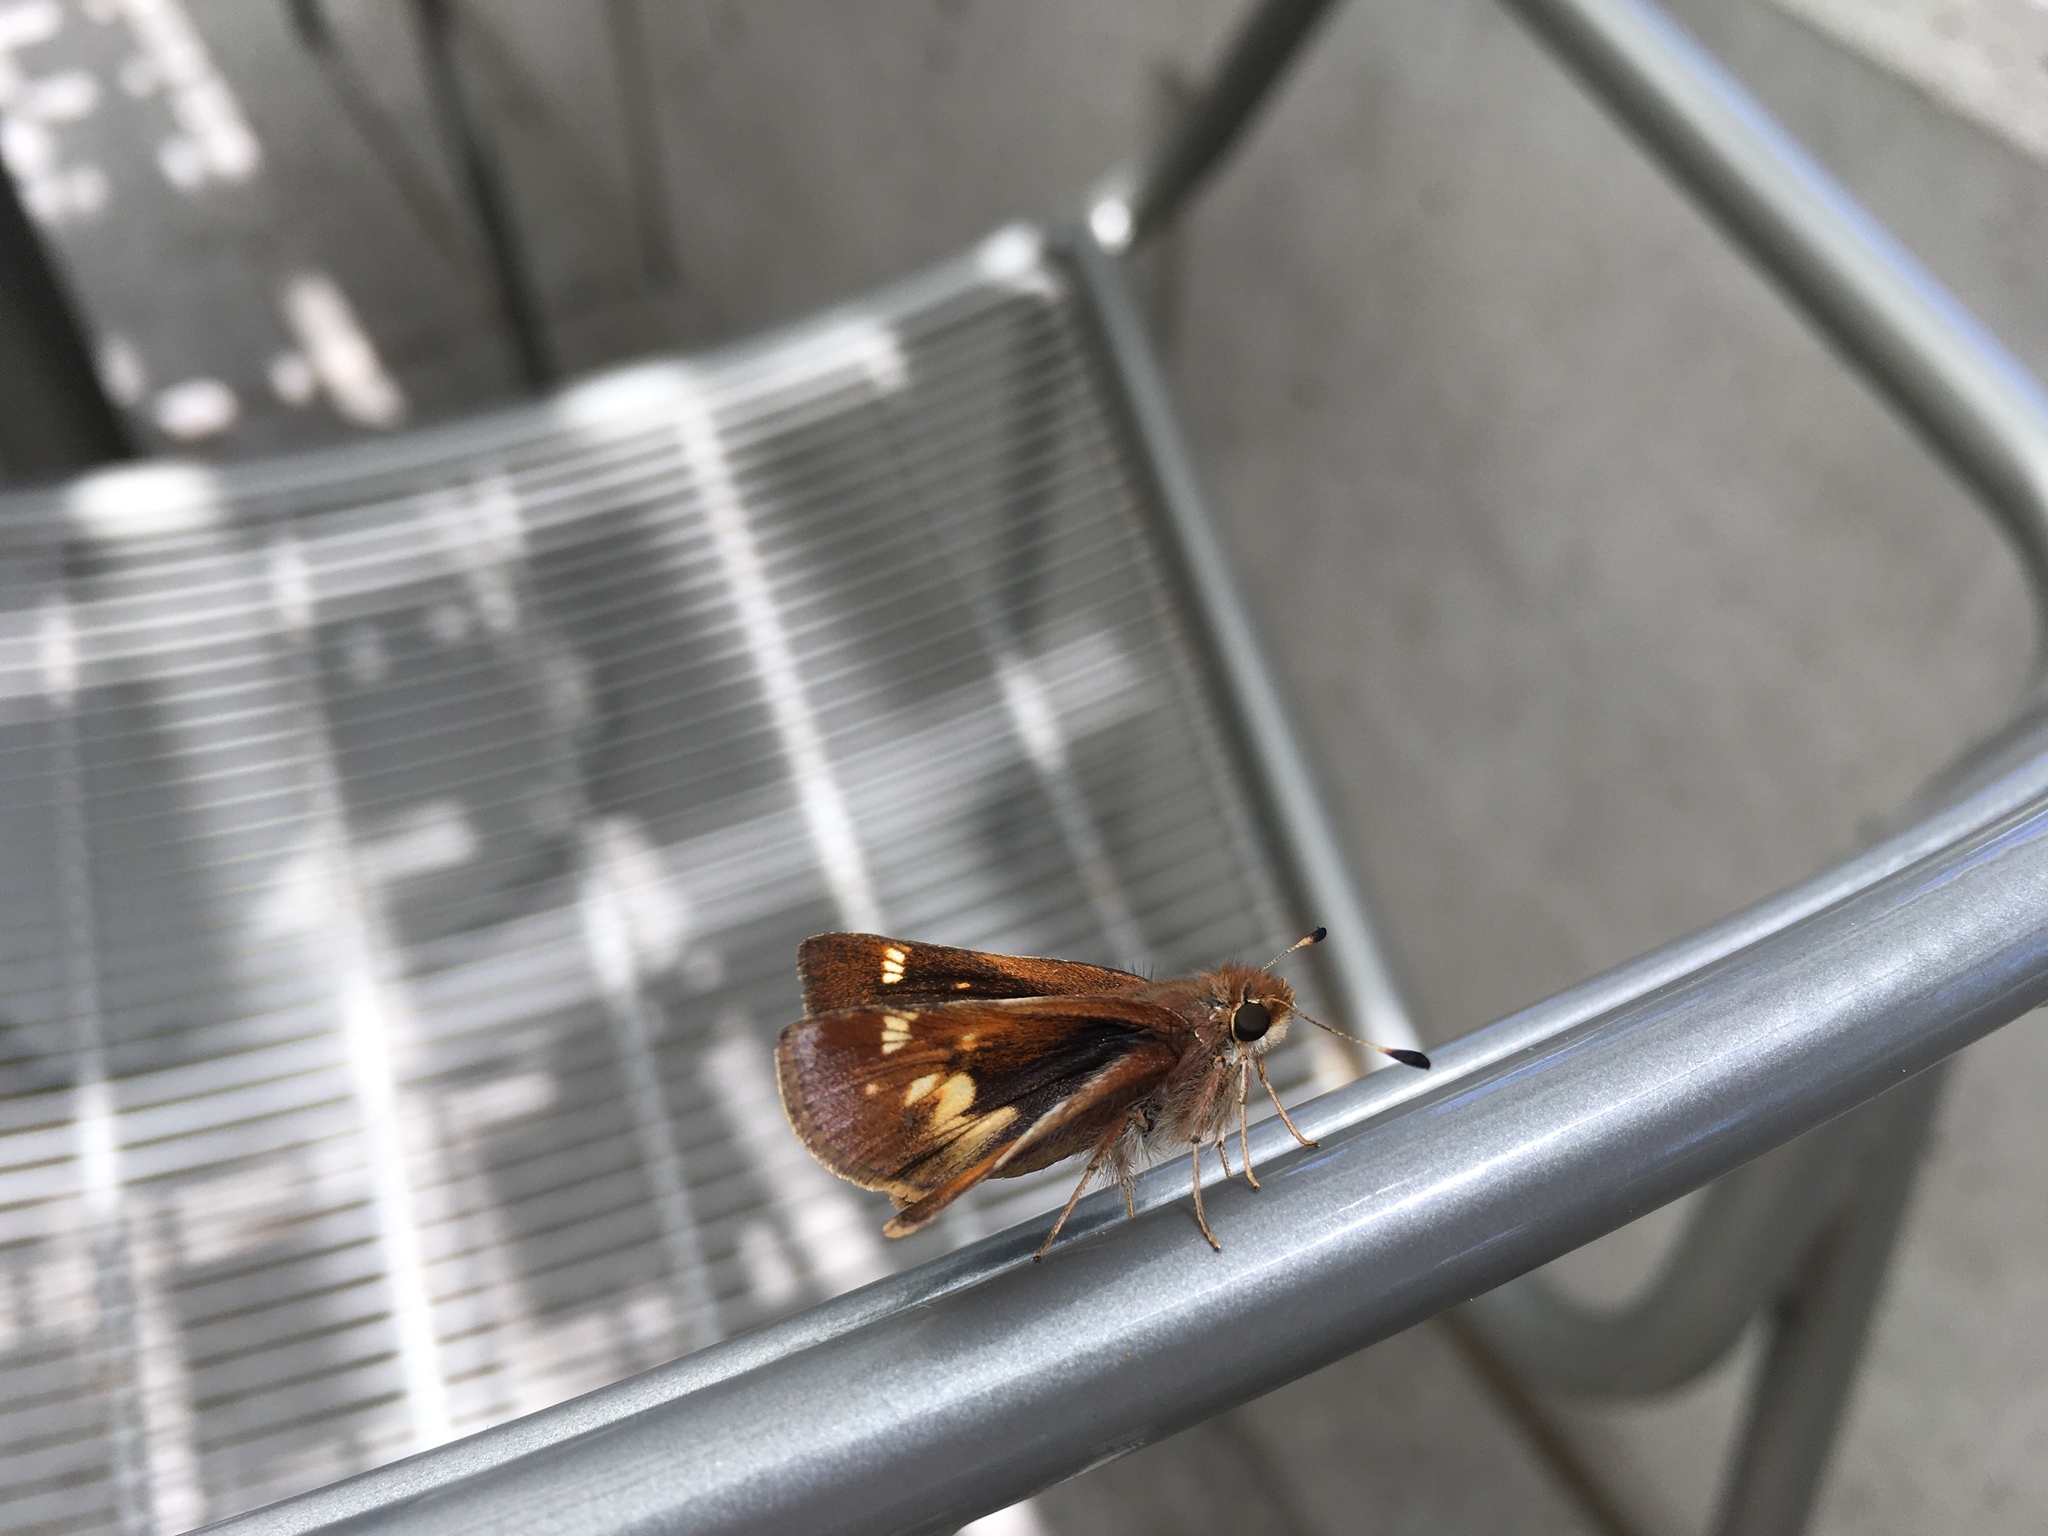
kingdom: Animalia
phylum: Arthropoda
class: Insecta
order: Lepidoptera
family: Hesperiidae
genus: Lon
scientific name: Lon melane
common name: Umber skipper
